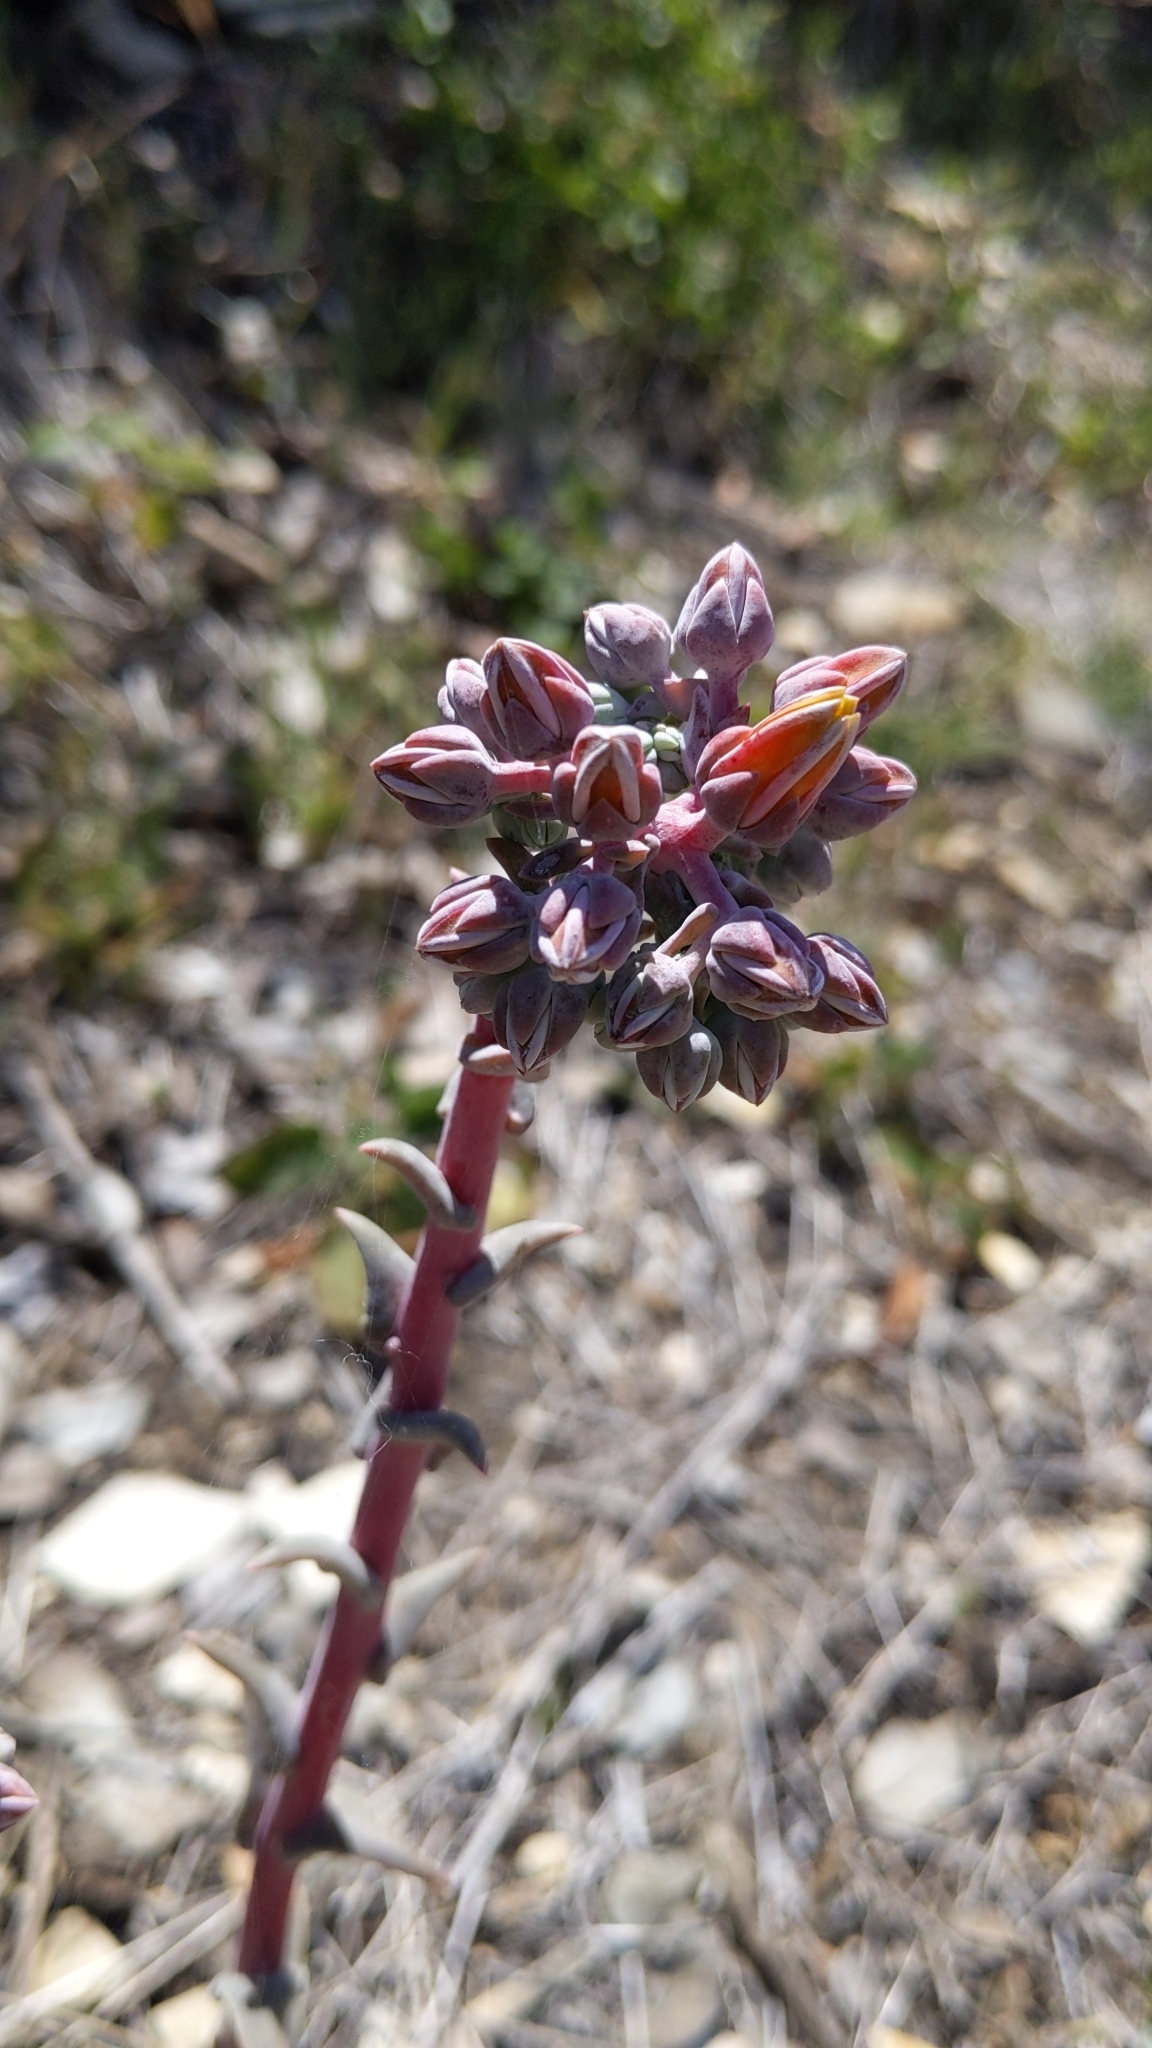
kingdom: Plantae
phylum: Tracheophyta
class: Magnoliopsida
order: Saxifragales
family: Crassulaceae
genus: Dudleya
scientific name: Dudleya lanceolata
